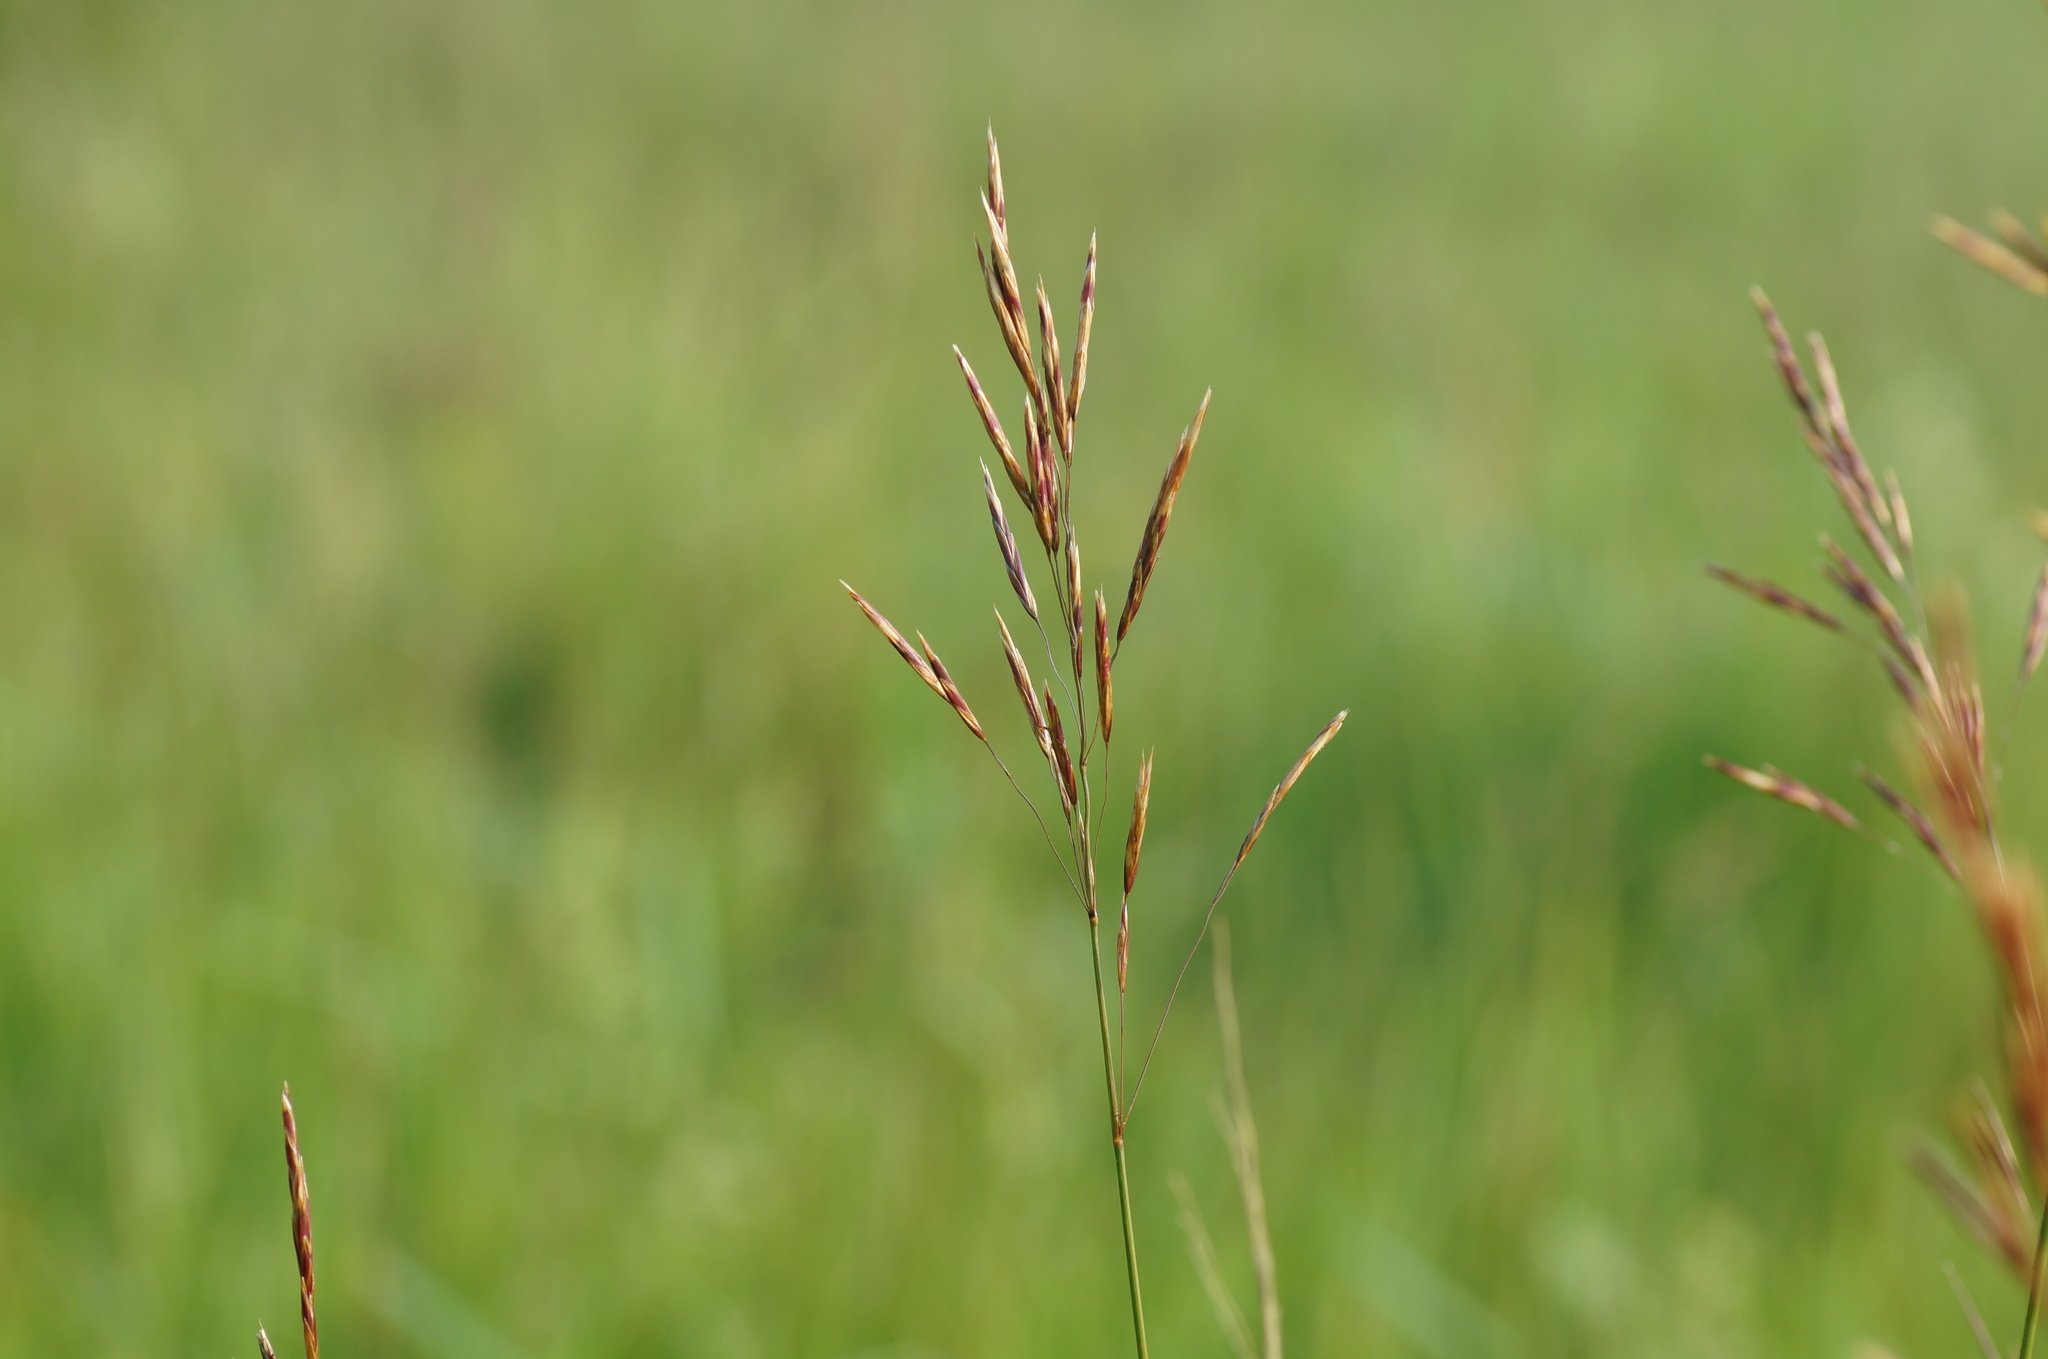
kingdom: Plantae
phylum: Tracheophyta
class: Liliopsida
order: Poales
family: Poaceae
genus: Bromus
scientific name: Bromus inermis
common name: Smooth brome
